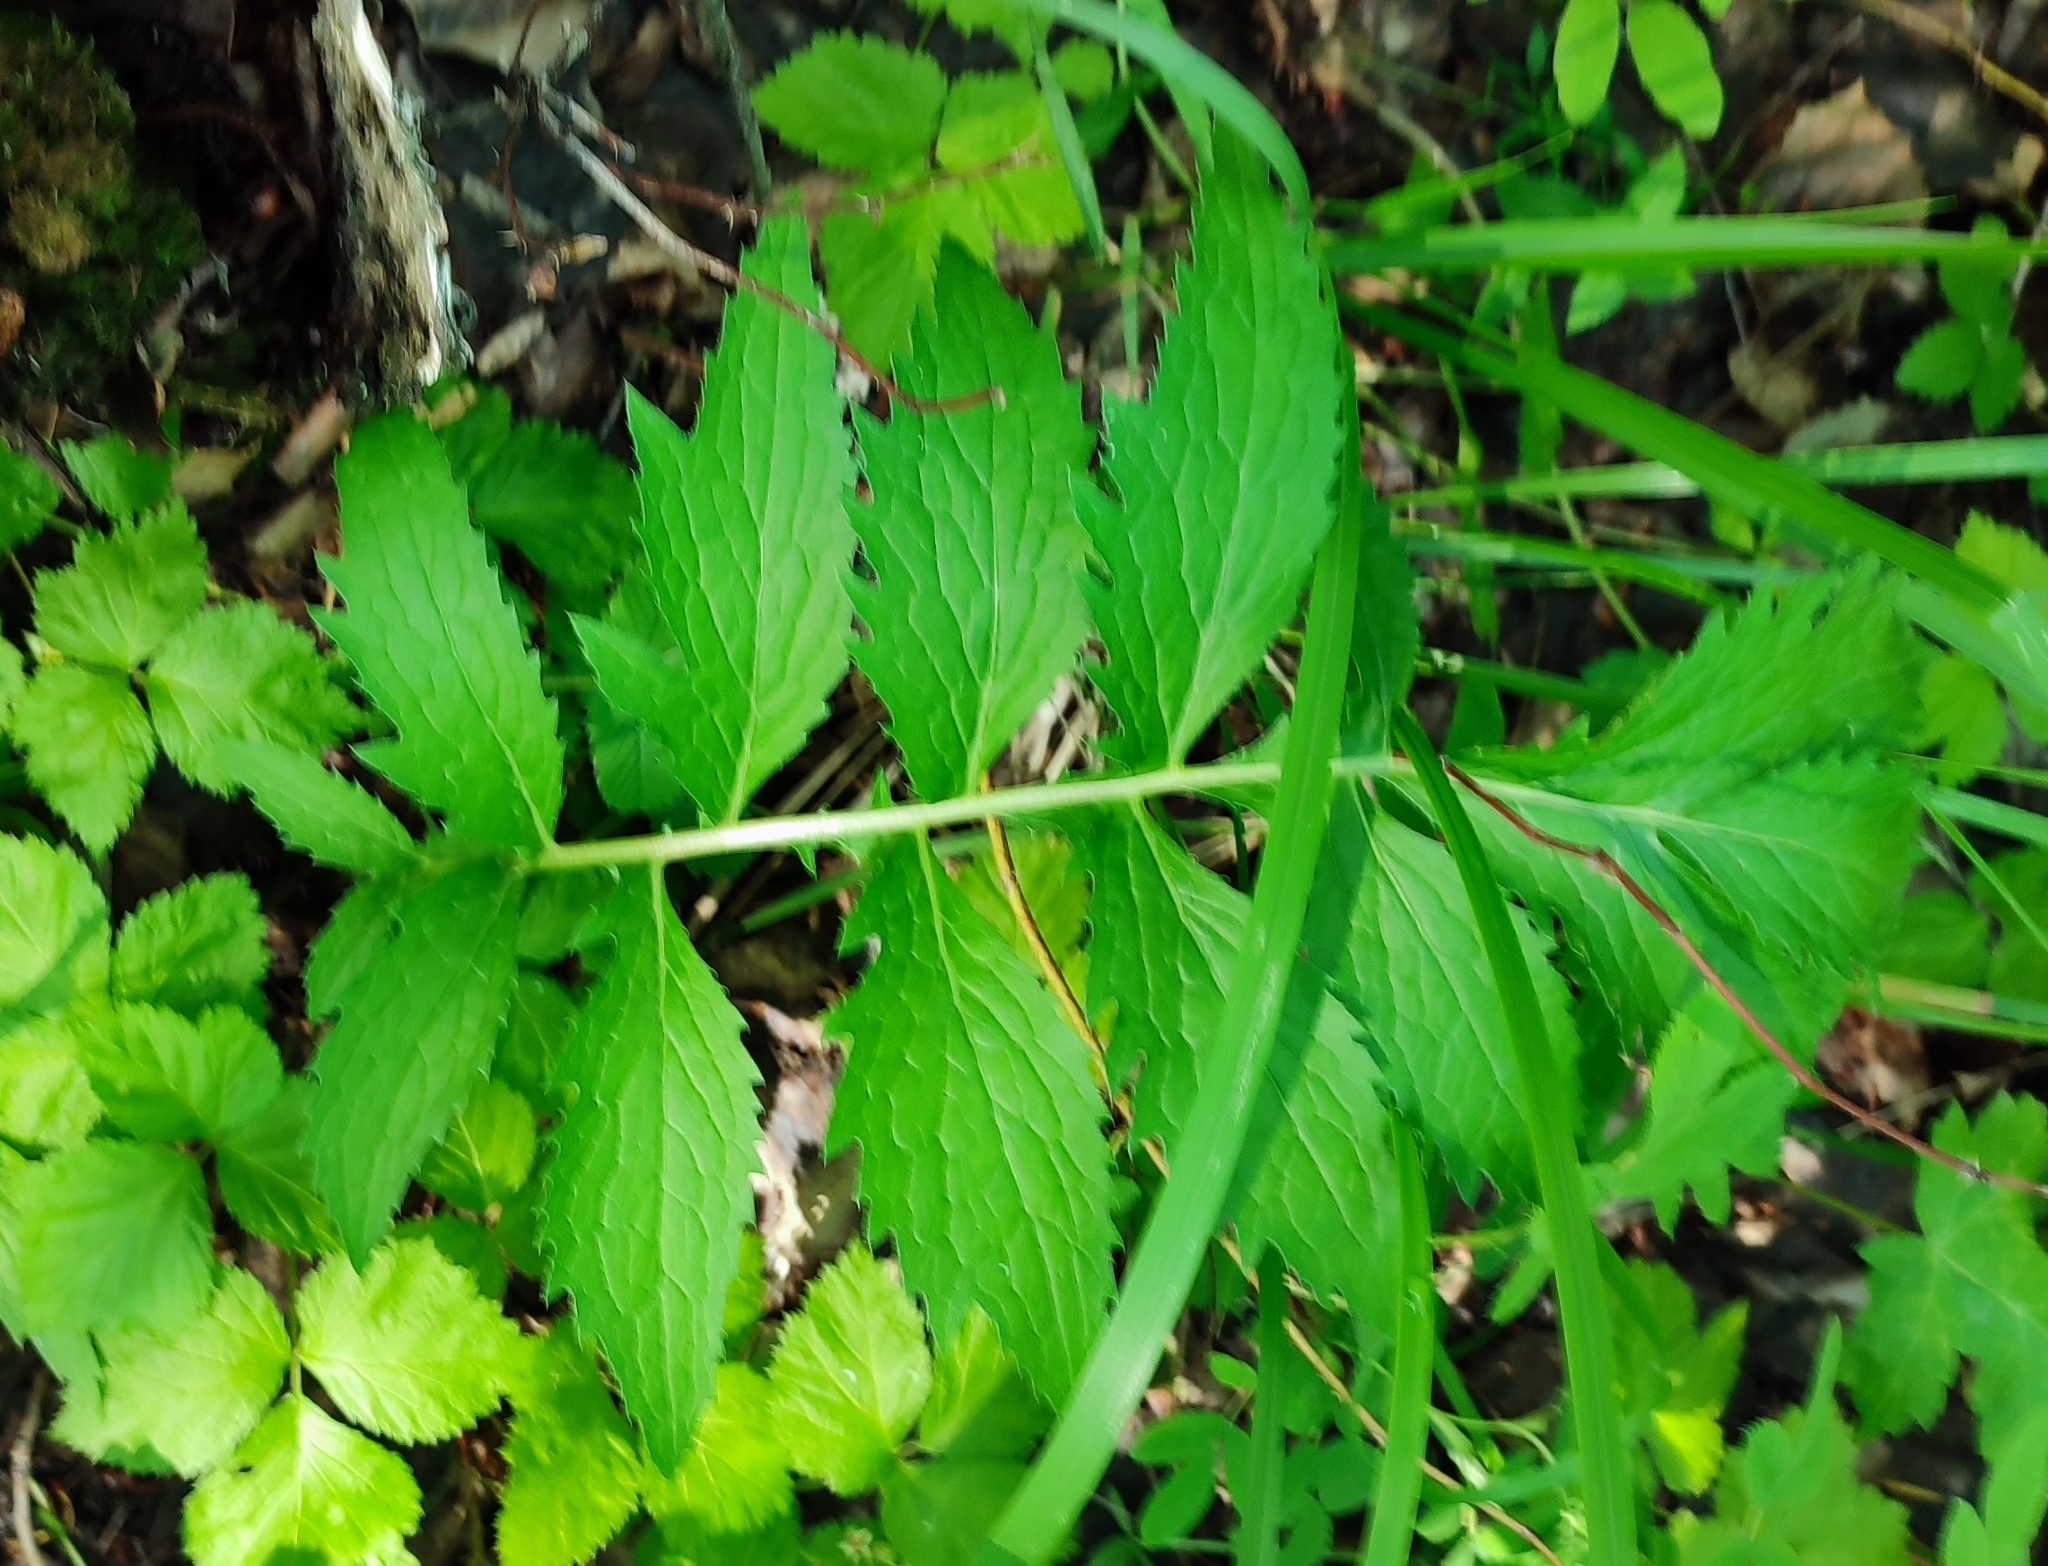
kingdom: Plantae
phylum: Tracheophyta
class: Magnoliopsida
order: Asterales
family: Asteraceae
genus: Serratula
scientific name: Serratula coronata
